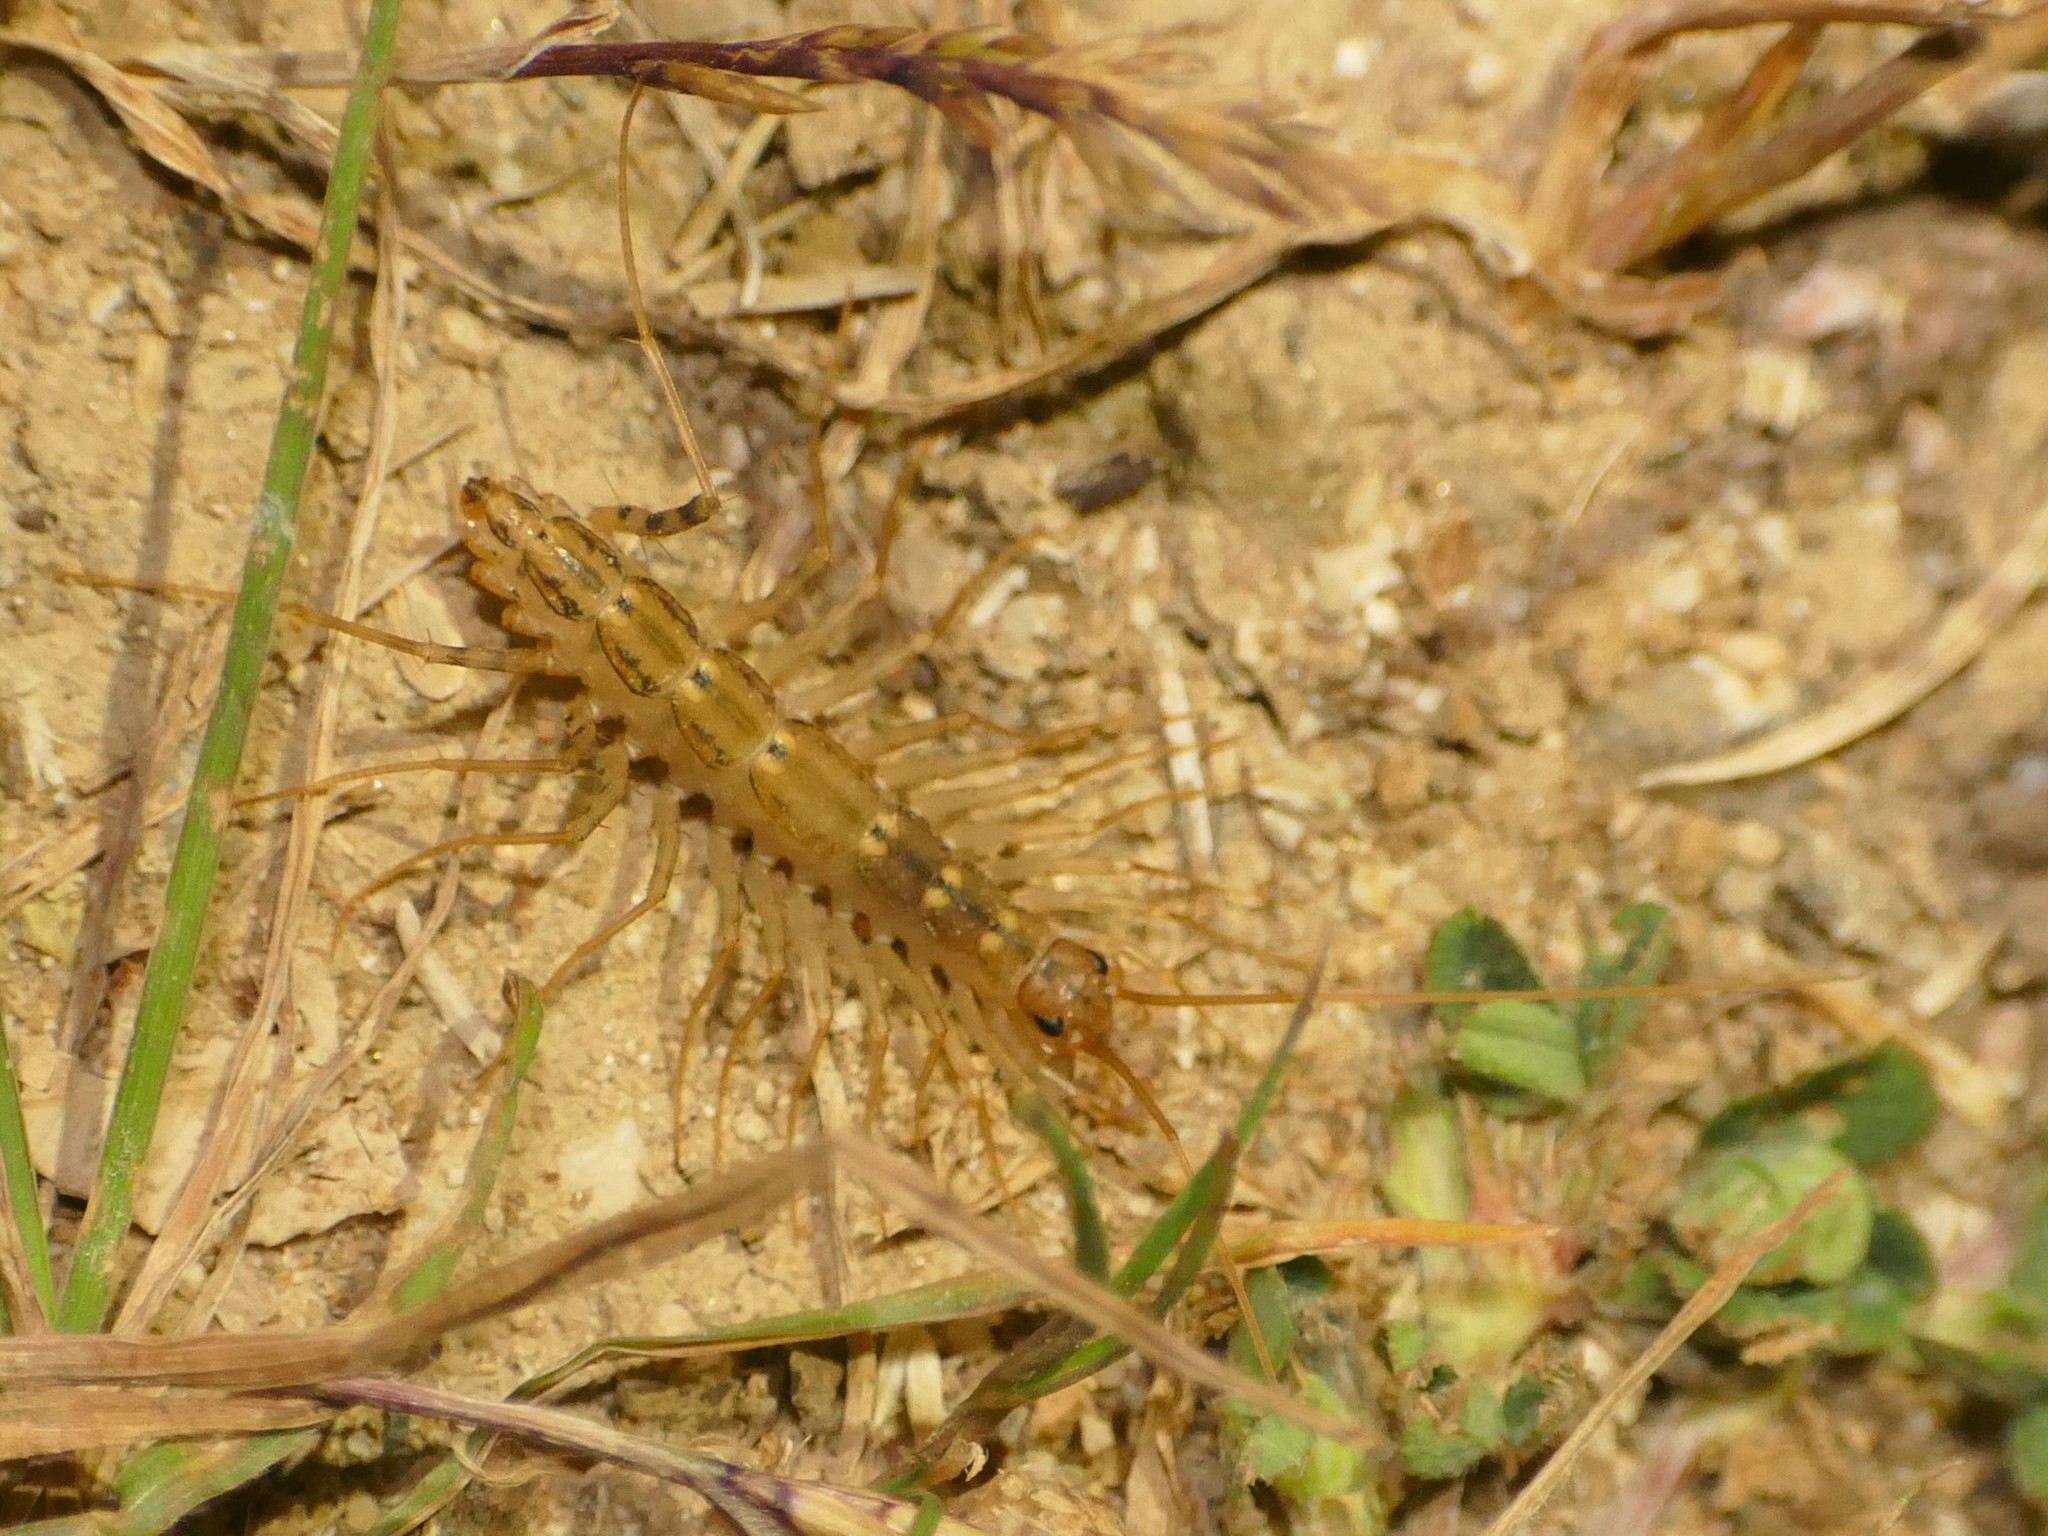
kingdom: Animalia
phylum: Arthropoda
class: Chilopoda
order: Scutigeromorpha
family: Scutigeridae
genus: Scutigera
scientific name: Scutigera coleoptrata
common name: House centipede
